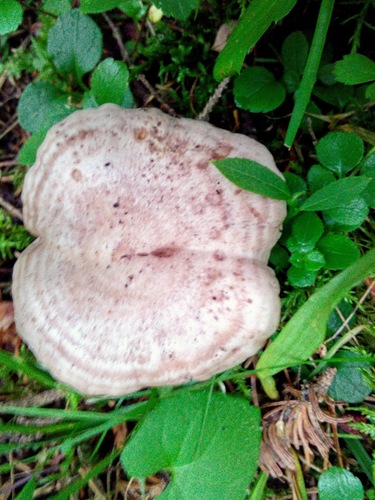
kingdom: Fungi
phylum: Basidiomycota
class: Agaricomycetes
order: Russulales
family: Russulaceae
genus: Lactarius
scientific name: Lactarius flexuosus
